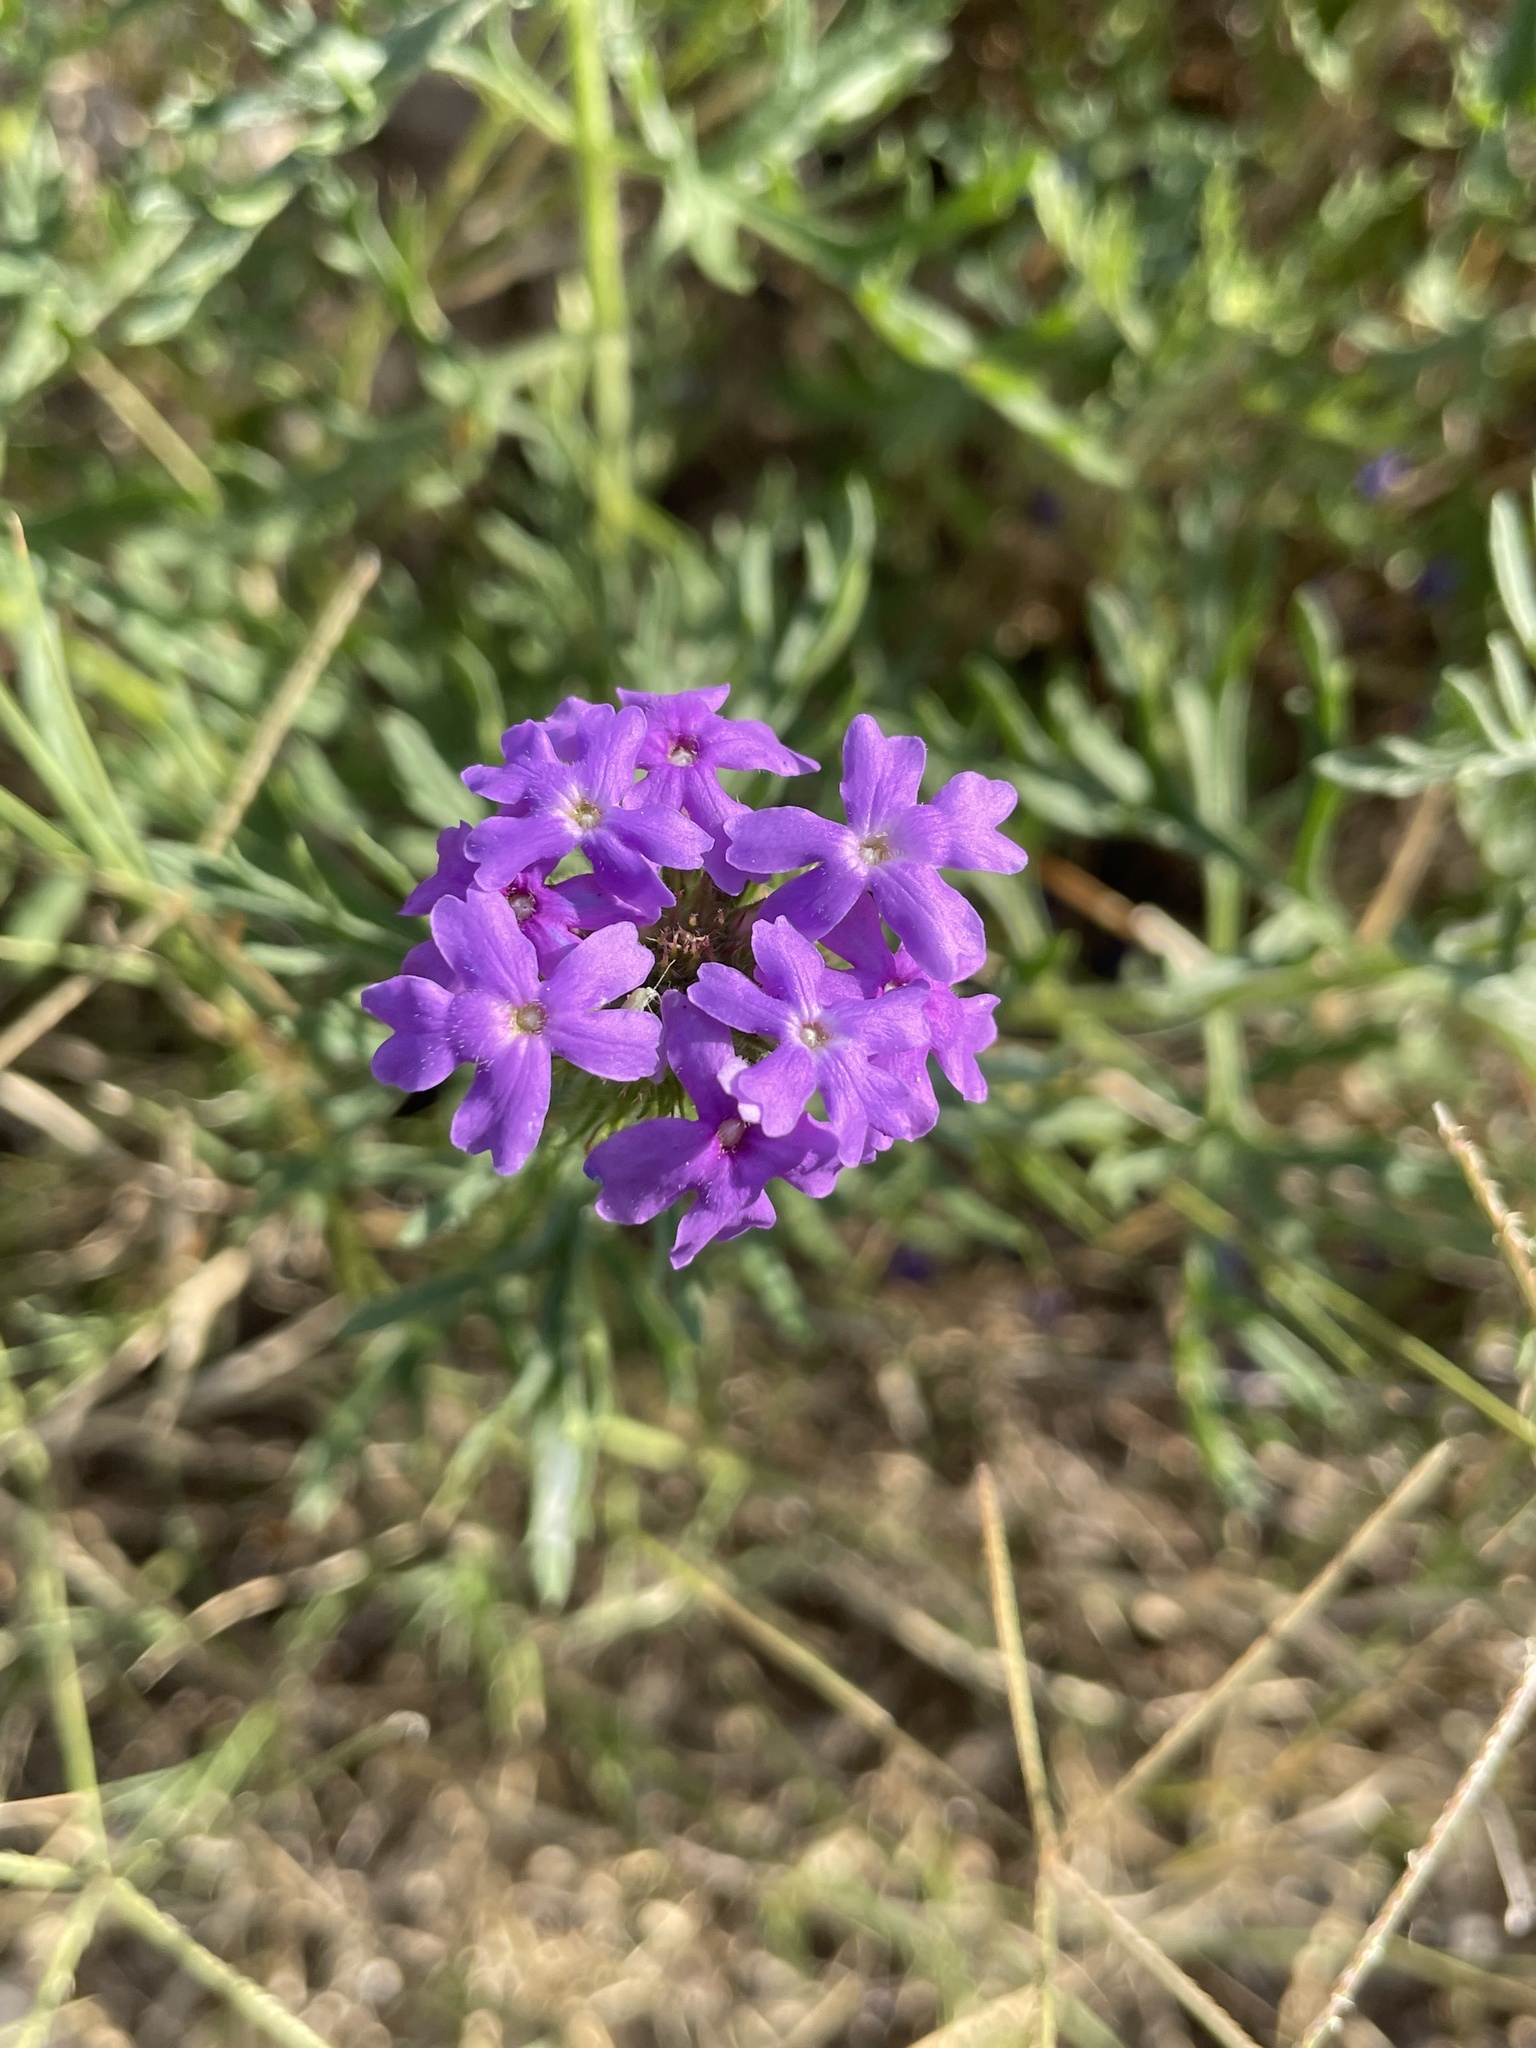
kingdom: Plantae
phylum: Tracheophyta
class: Magnoliopsida
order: Lamiales
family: Verbenaceae
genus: Verbena
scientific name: Verbena bipinnatifida
